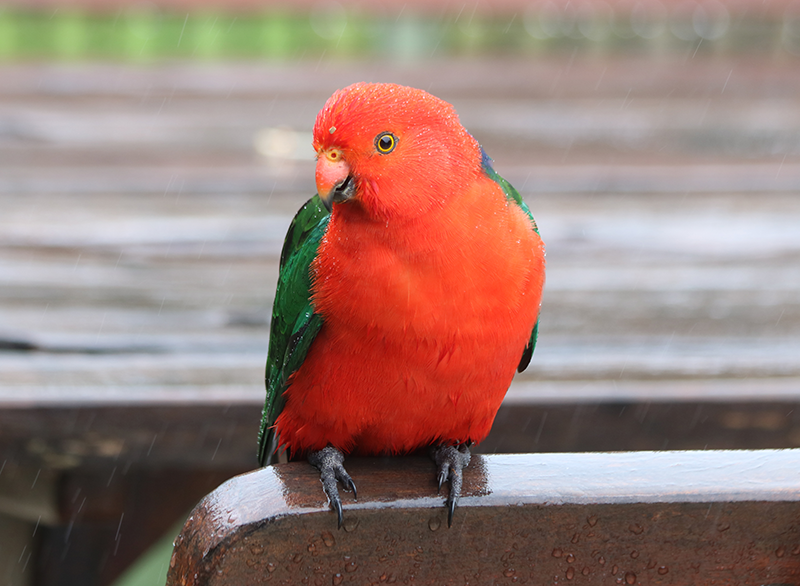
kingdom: Animalia
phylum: Chordata
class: Aves
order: Psittaciformes
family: Psittacidae
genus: Alisterus
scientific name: Alisterus scapularis
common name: Australian king parrot
